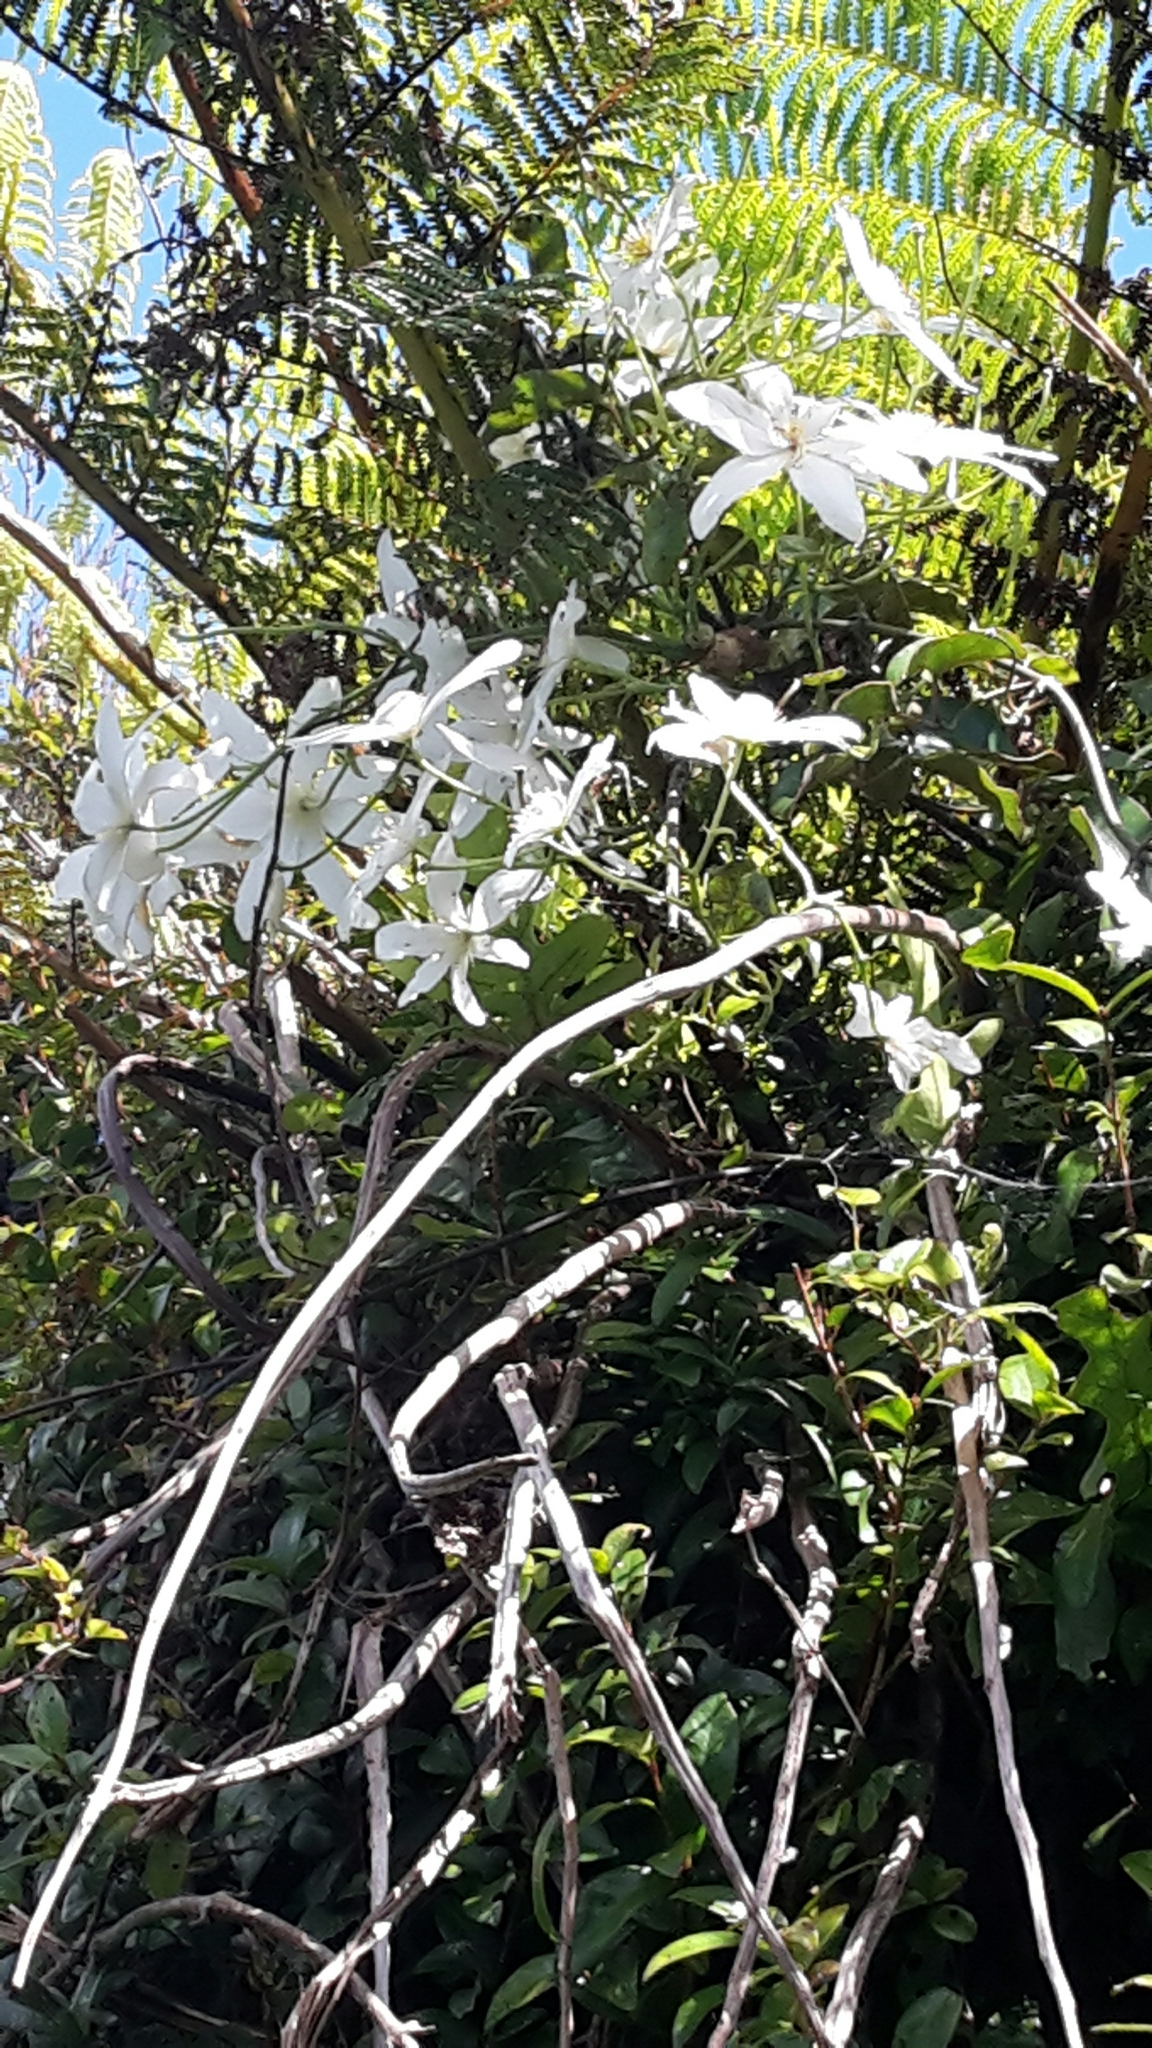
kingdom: Plantae
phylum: Tracheophyta
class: Magnoliopsida
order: Ranunculales
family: Ranunculaceae
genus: Clematis
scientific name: Clematis paniculata
